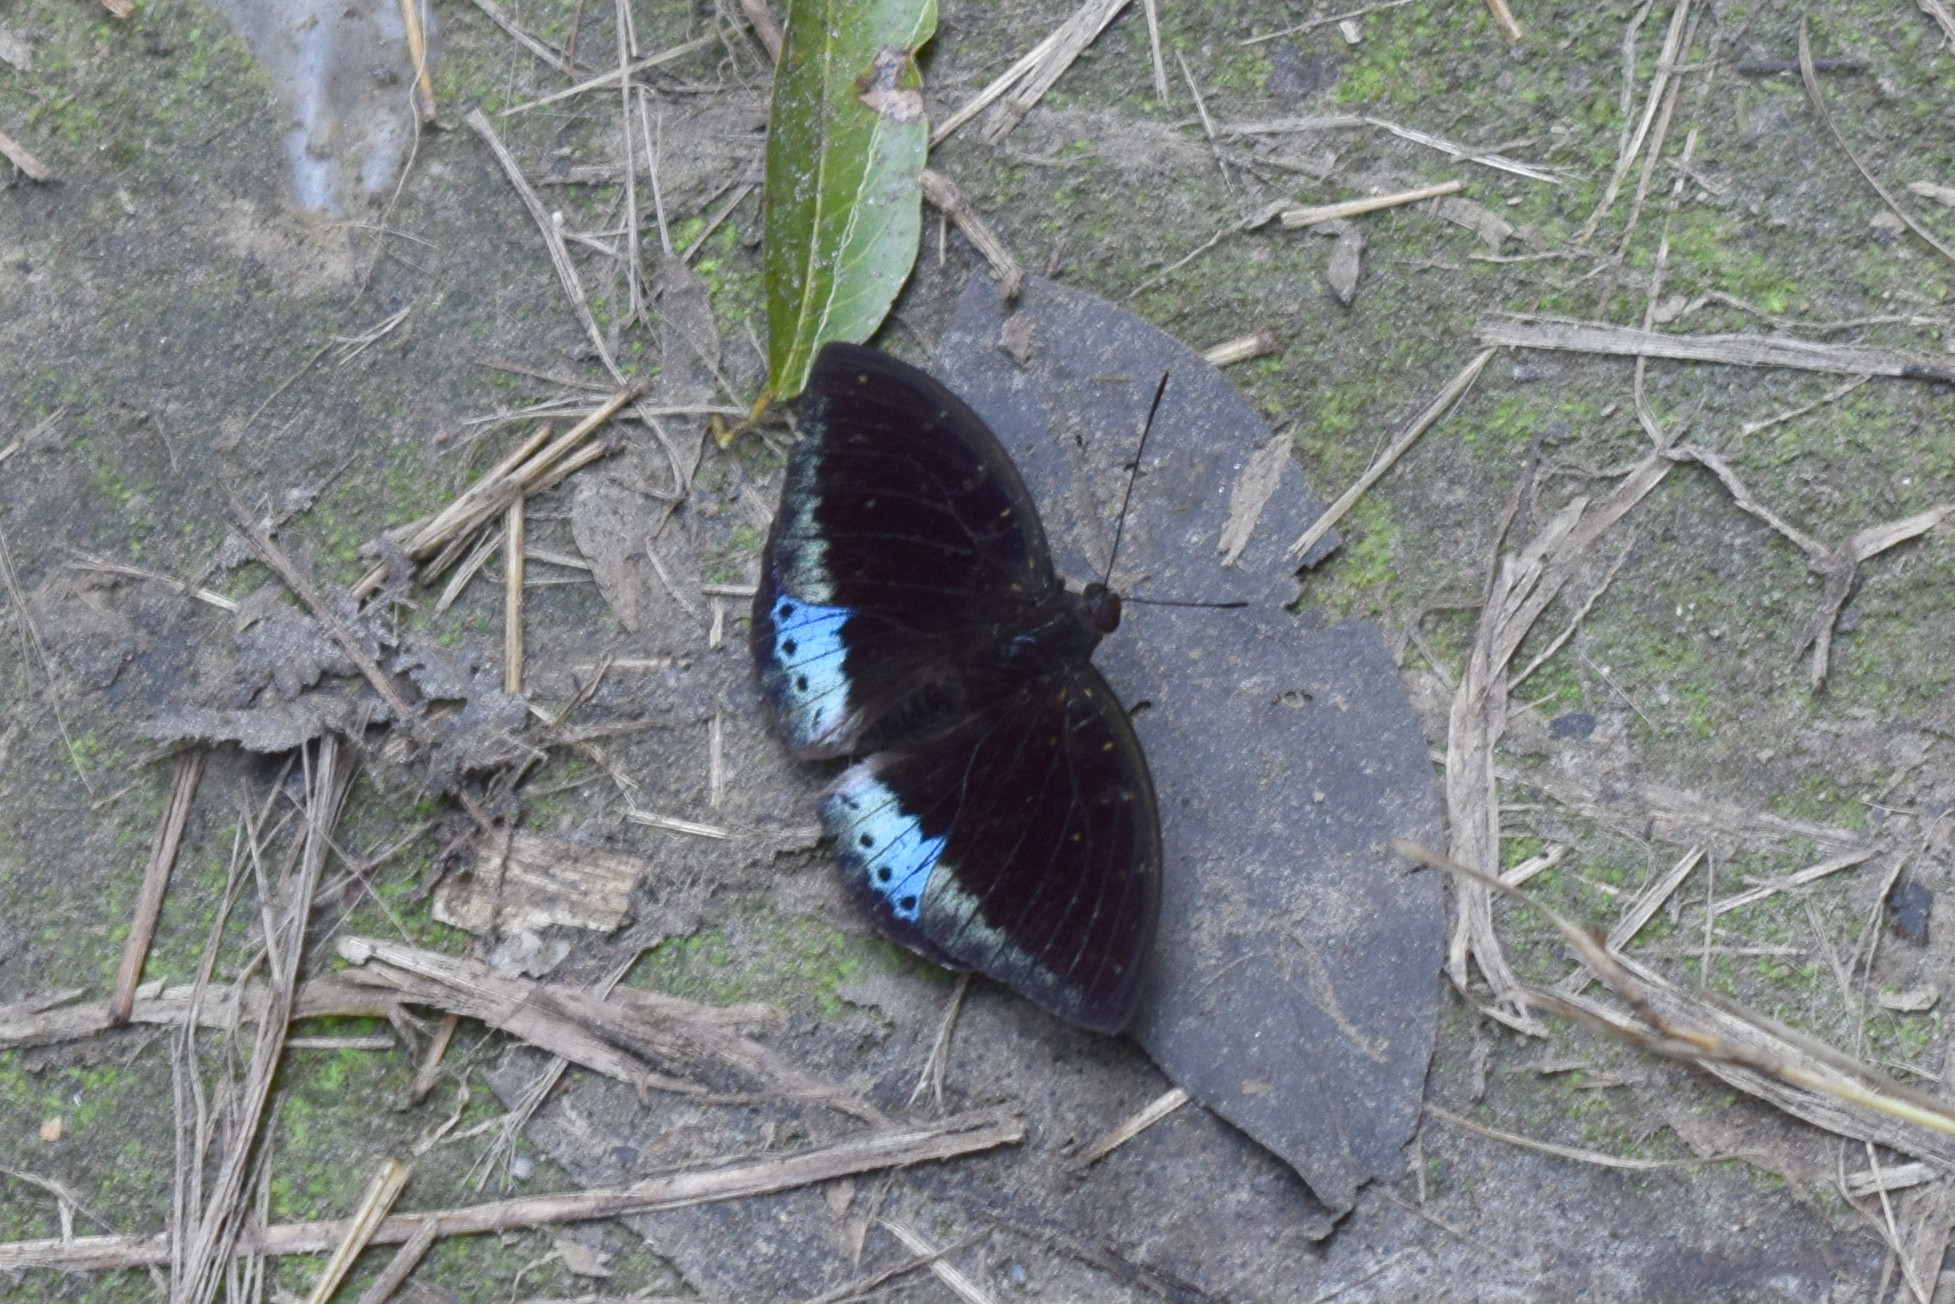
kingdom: Animalia
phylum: Arthropoda
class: Insecta
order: Lepidoptera
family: Nymphalidae
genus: Lexias
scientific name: Lexias pardalis
